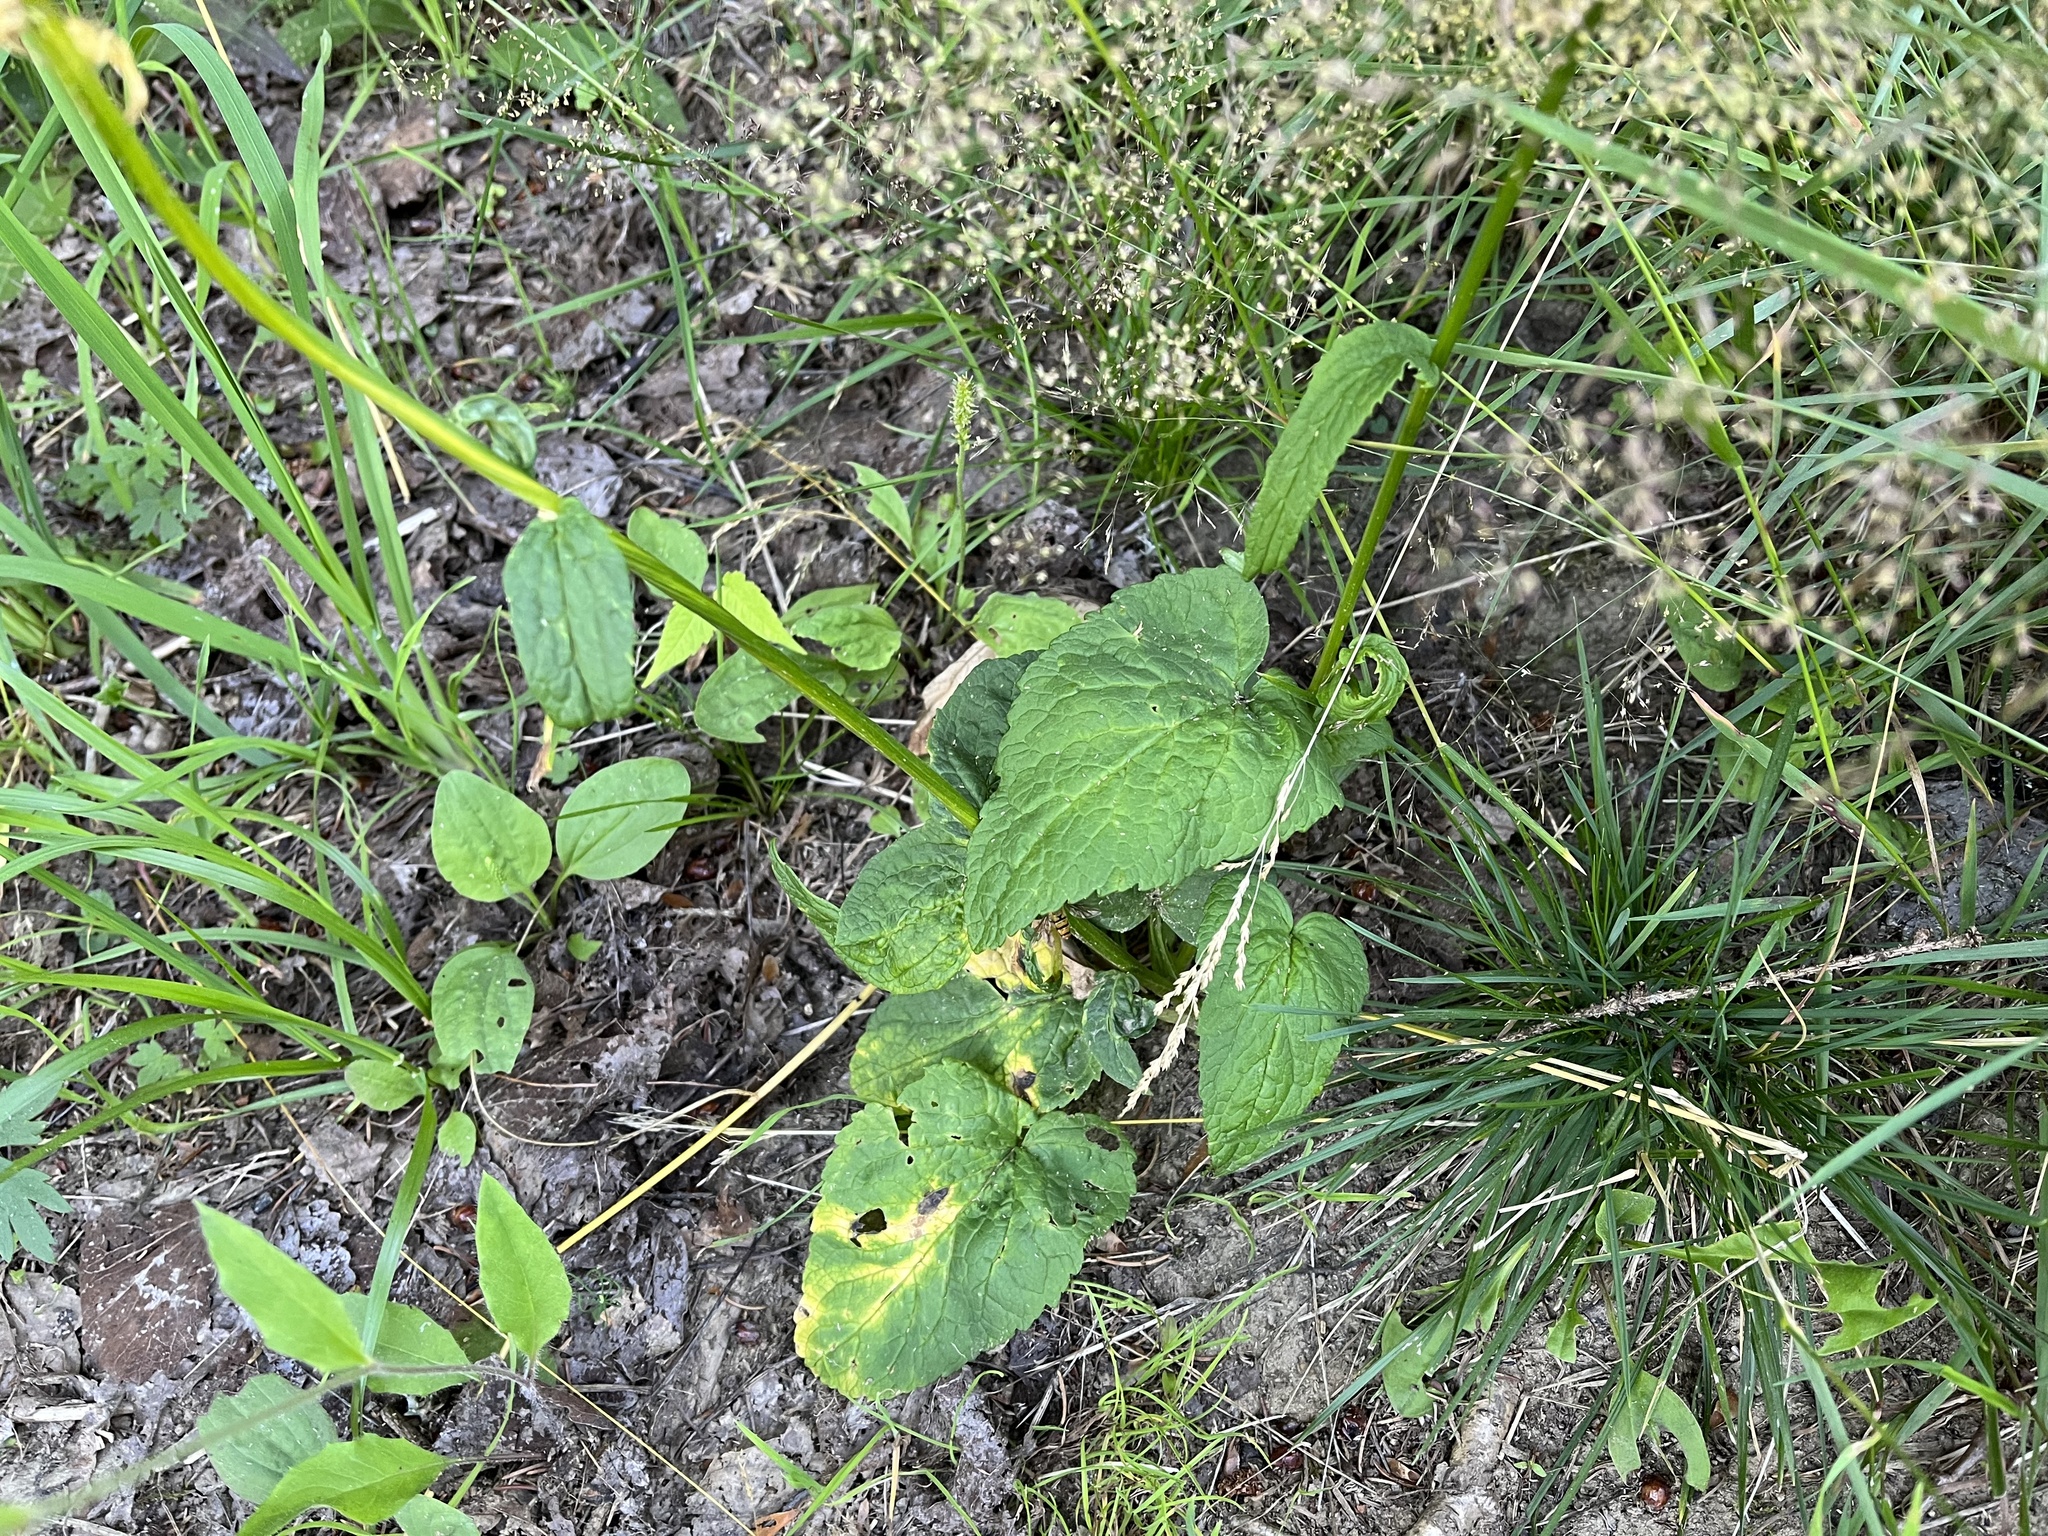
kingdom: Plantae
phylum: Tracheophyta
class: Magnoliopsida
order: Asterales
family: Campanulaceae
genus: Phyteuma
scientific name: Phyteuma spicatum
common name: Spiked rampion
